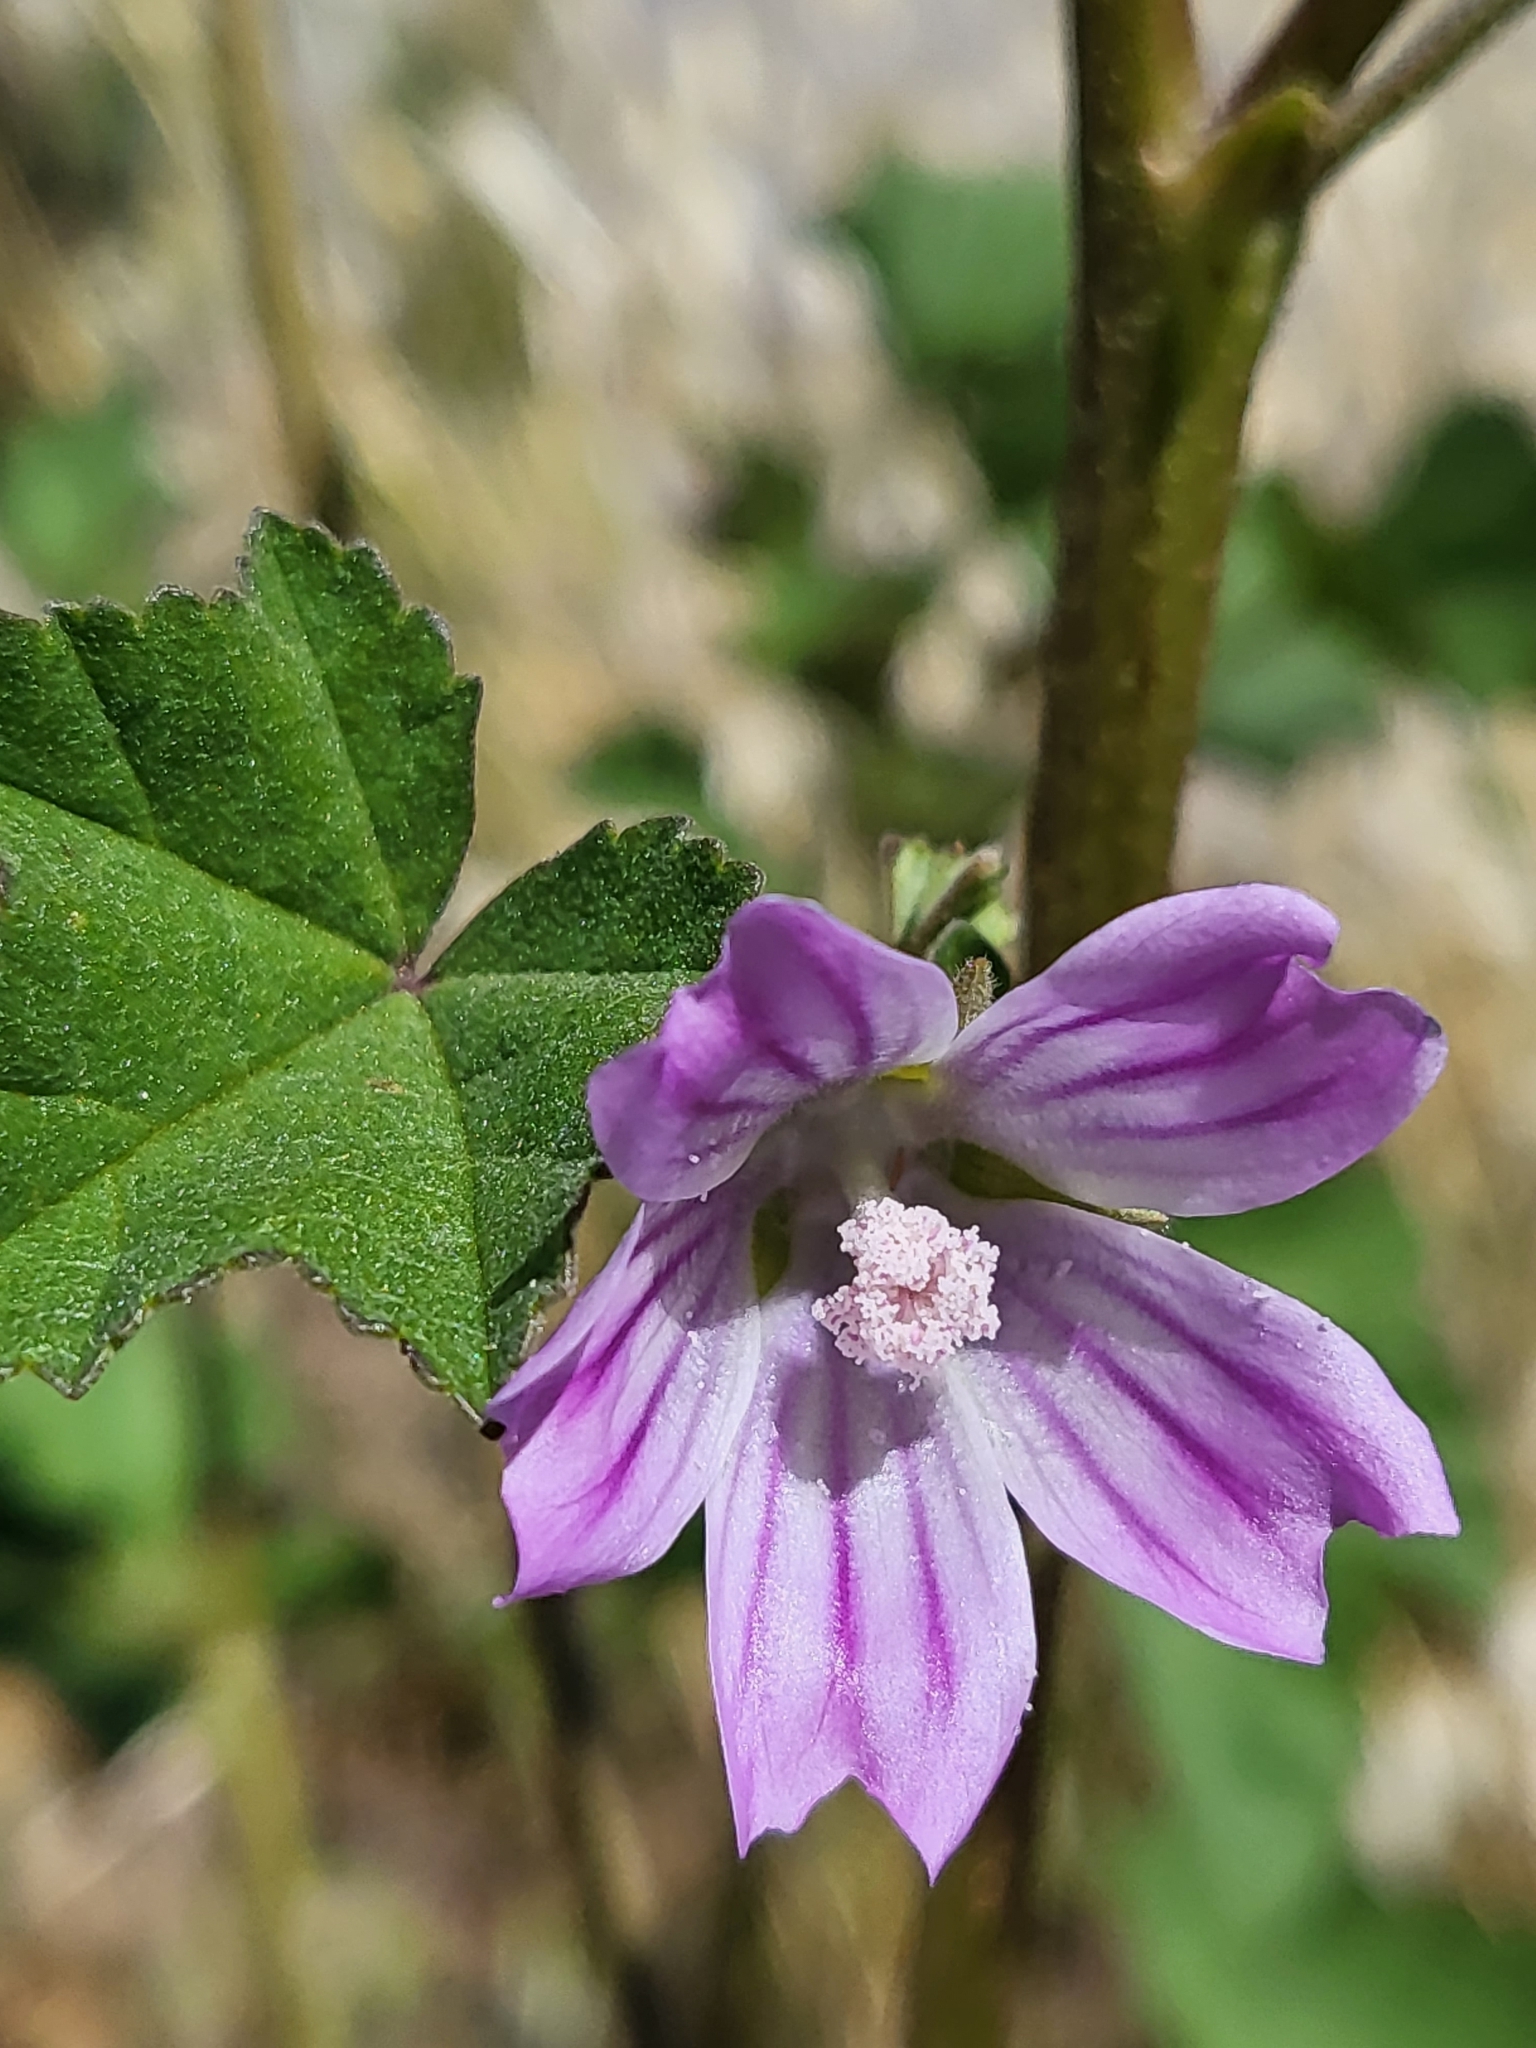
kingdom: Plantae
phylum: Tracheophyta
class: Magnoliopsida
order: Malvales
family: Malvaceae
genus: Malva
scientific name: Malva multiflora
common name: Cheeseweed
